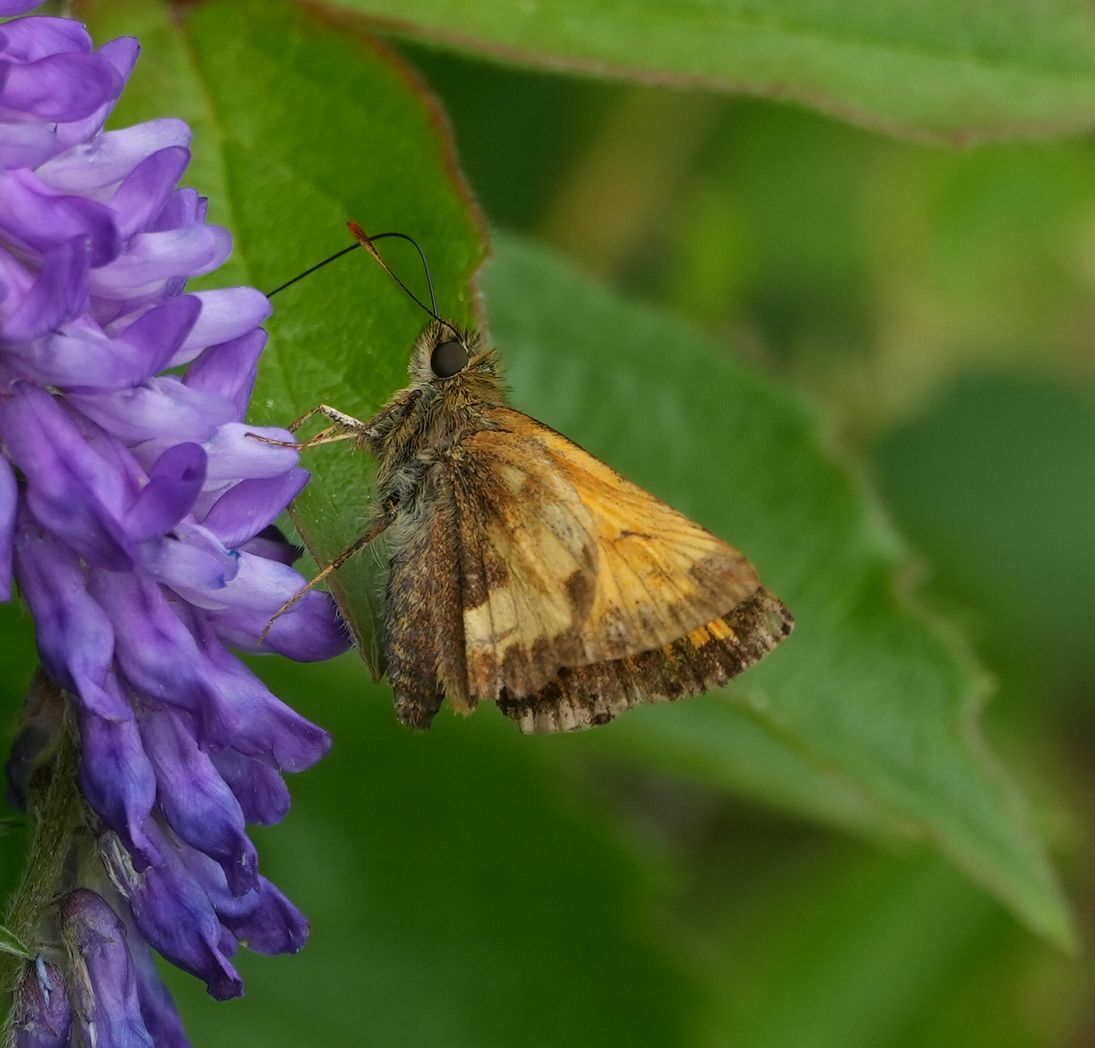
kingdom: Animalia
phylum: Arthropoda
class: Insecta
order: Lepidoptera
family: Hesperiidae
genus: Lon
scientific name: Lon hobomok
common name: Hobomok skipper
